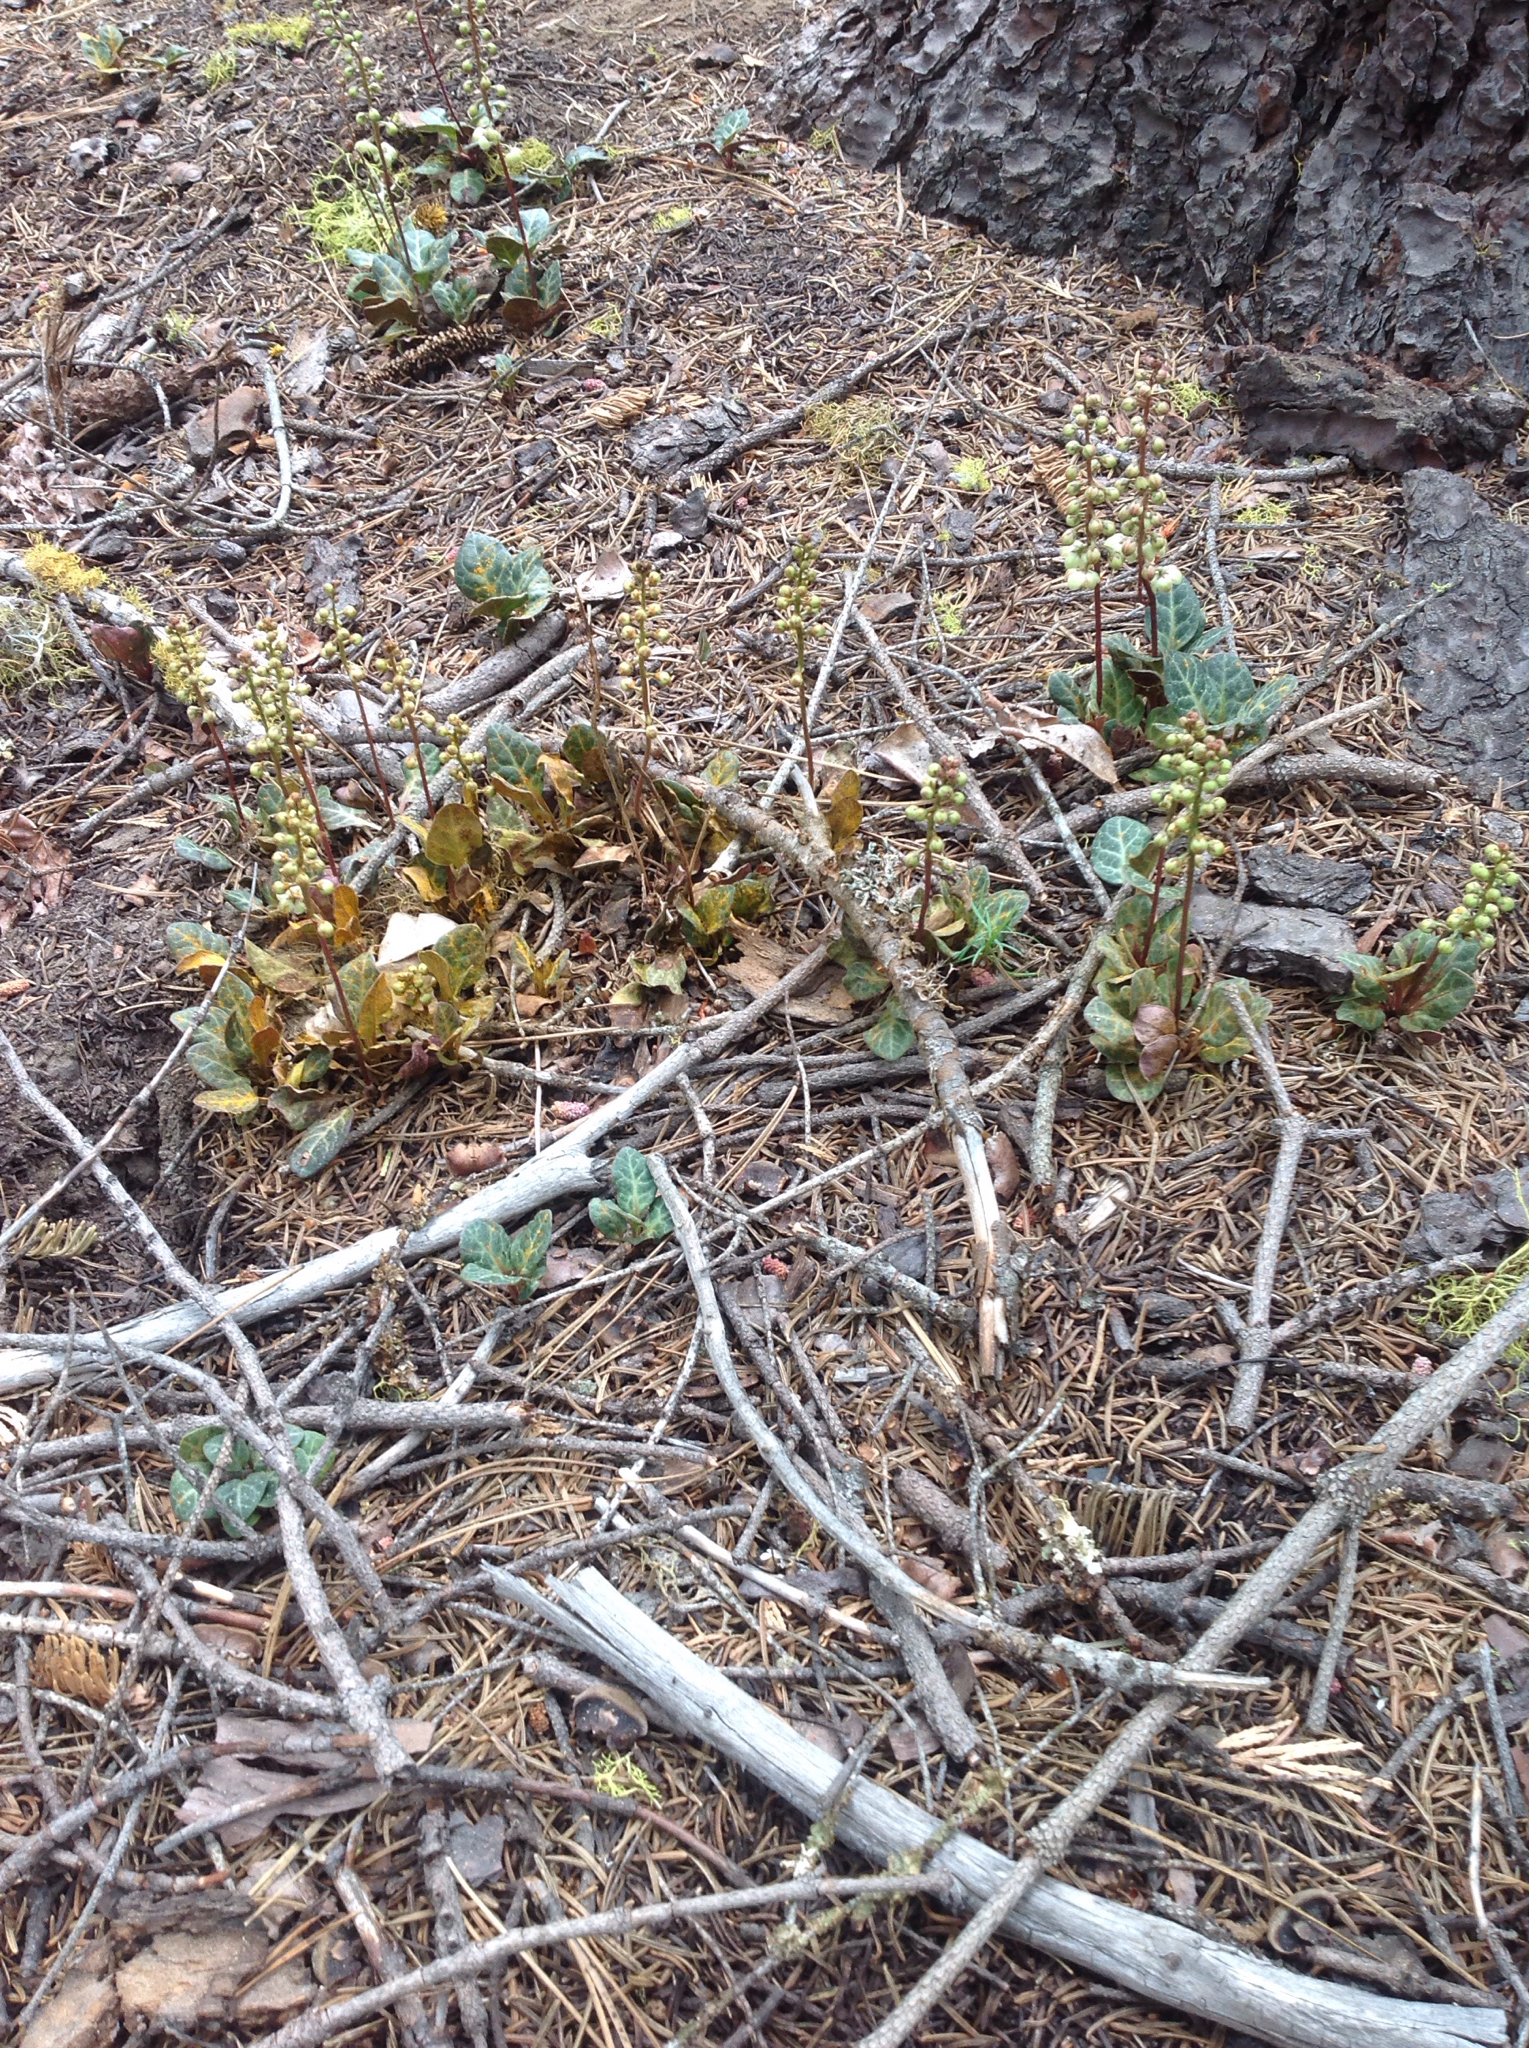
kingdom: Plantae
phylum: Tracheophyta
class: Magnoliopsida
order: Ericales
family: Ericaceae
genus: Pyrola
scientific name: Pyrola picta
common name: White-vein wintergreen
